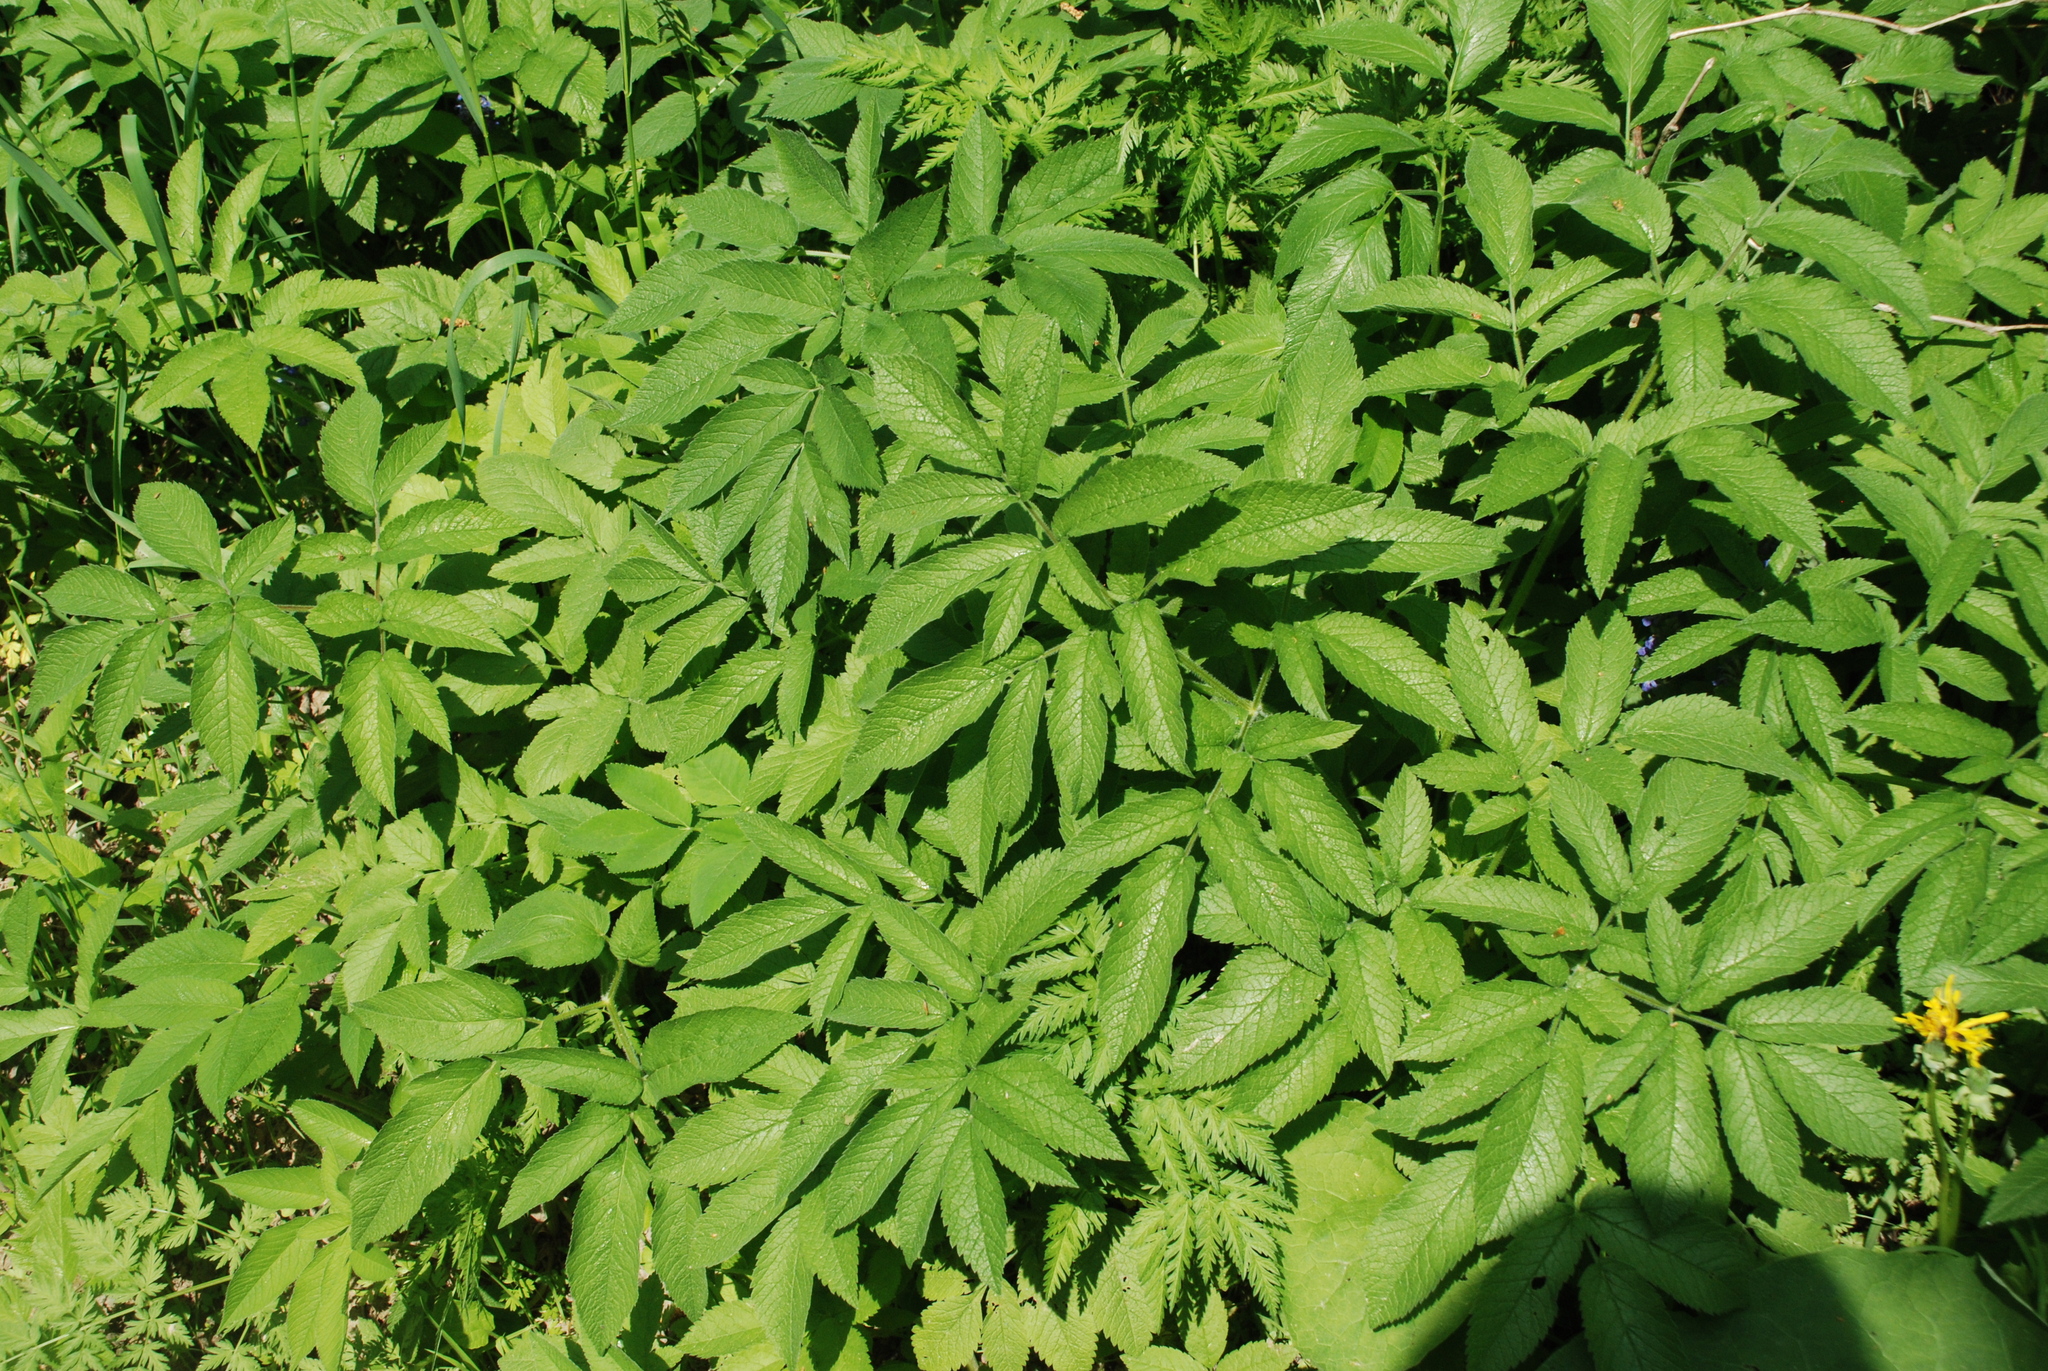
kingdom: Plantae
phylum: Tracheophyta
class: Magnoliopsida
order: Apiales
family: Apiaceae
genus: Chaerophyllum
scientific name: Chaerophyllum aromaticum
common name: Broadleaf chervil
